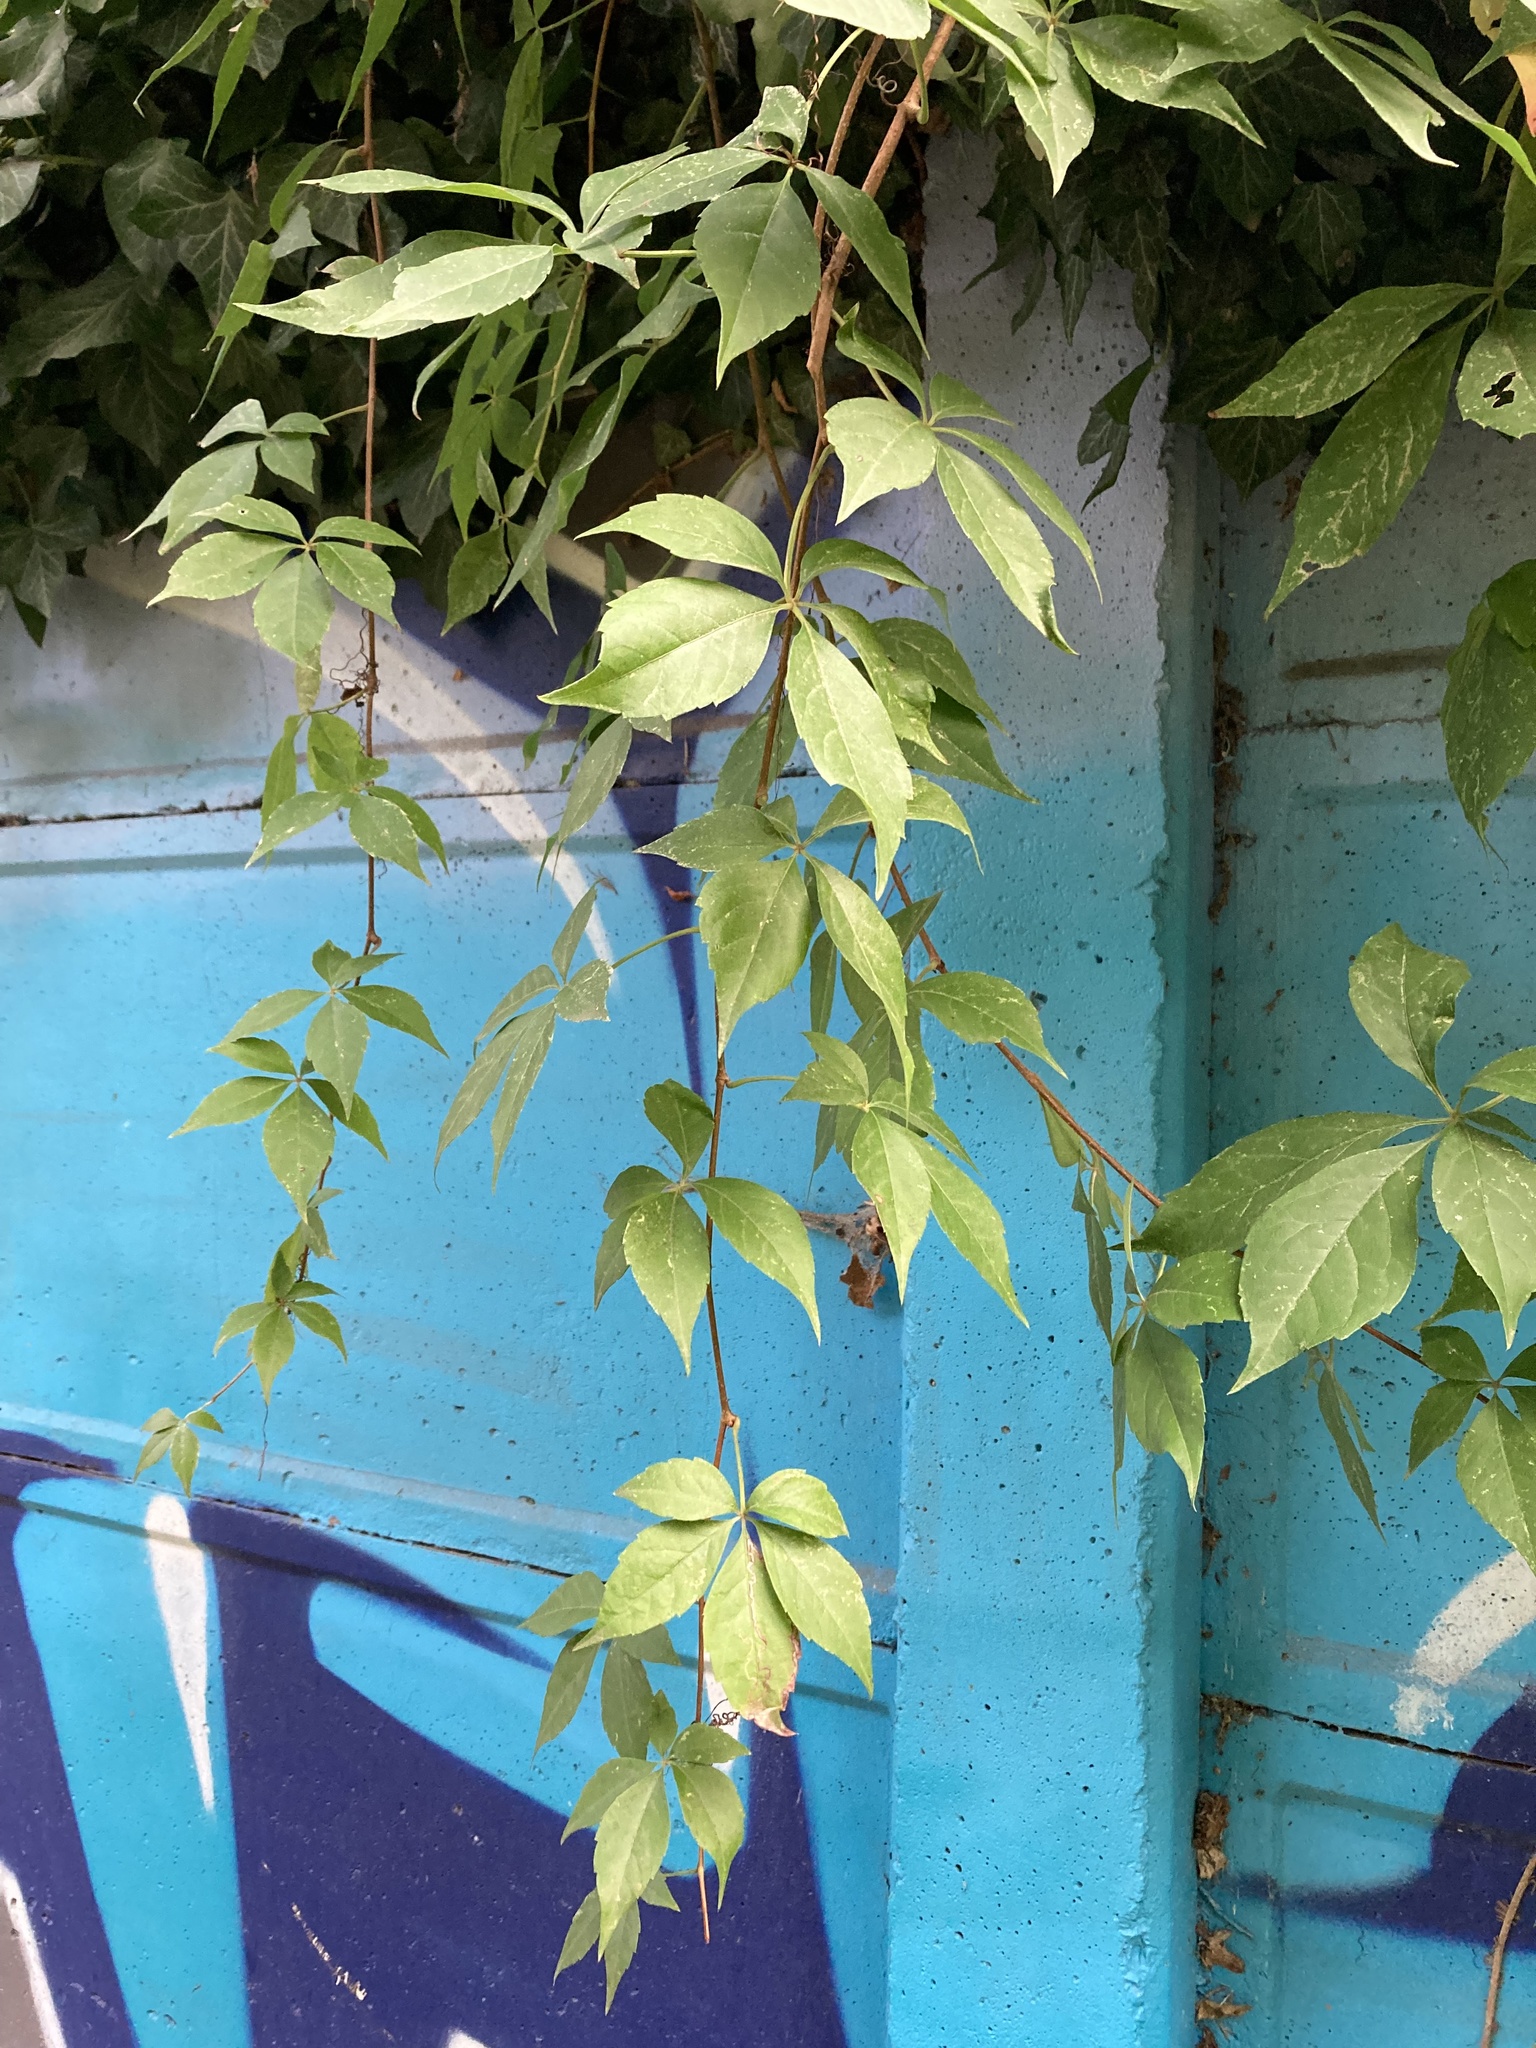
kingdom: Plantae
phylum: Tracheophyta
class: Magnoliopsida
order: Vitales
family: Vitaceae
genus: Parthenocissus
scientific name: Parthenocissus quinquefolia
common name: Virginia-creeper
